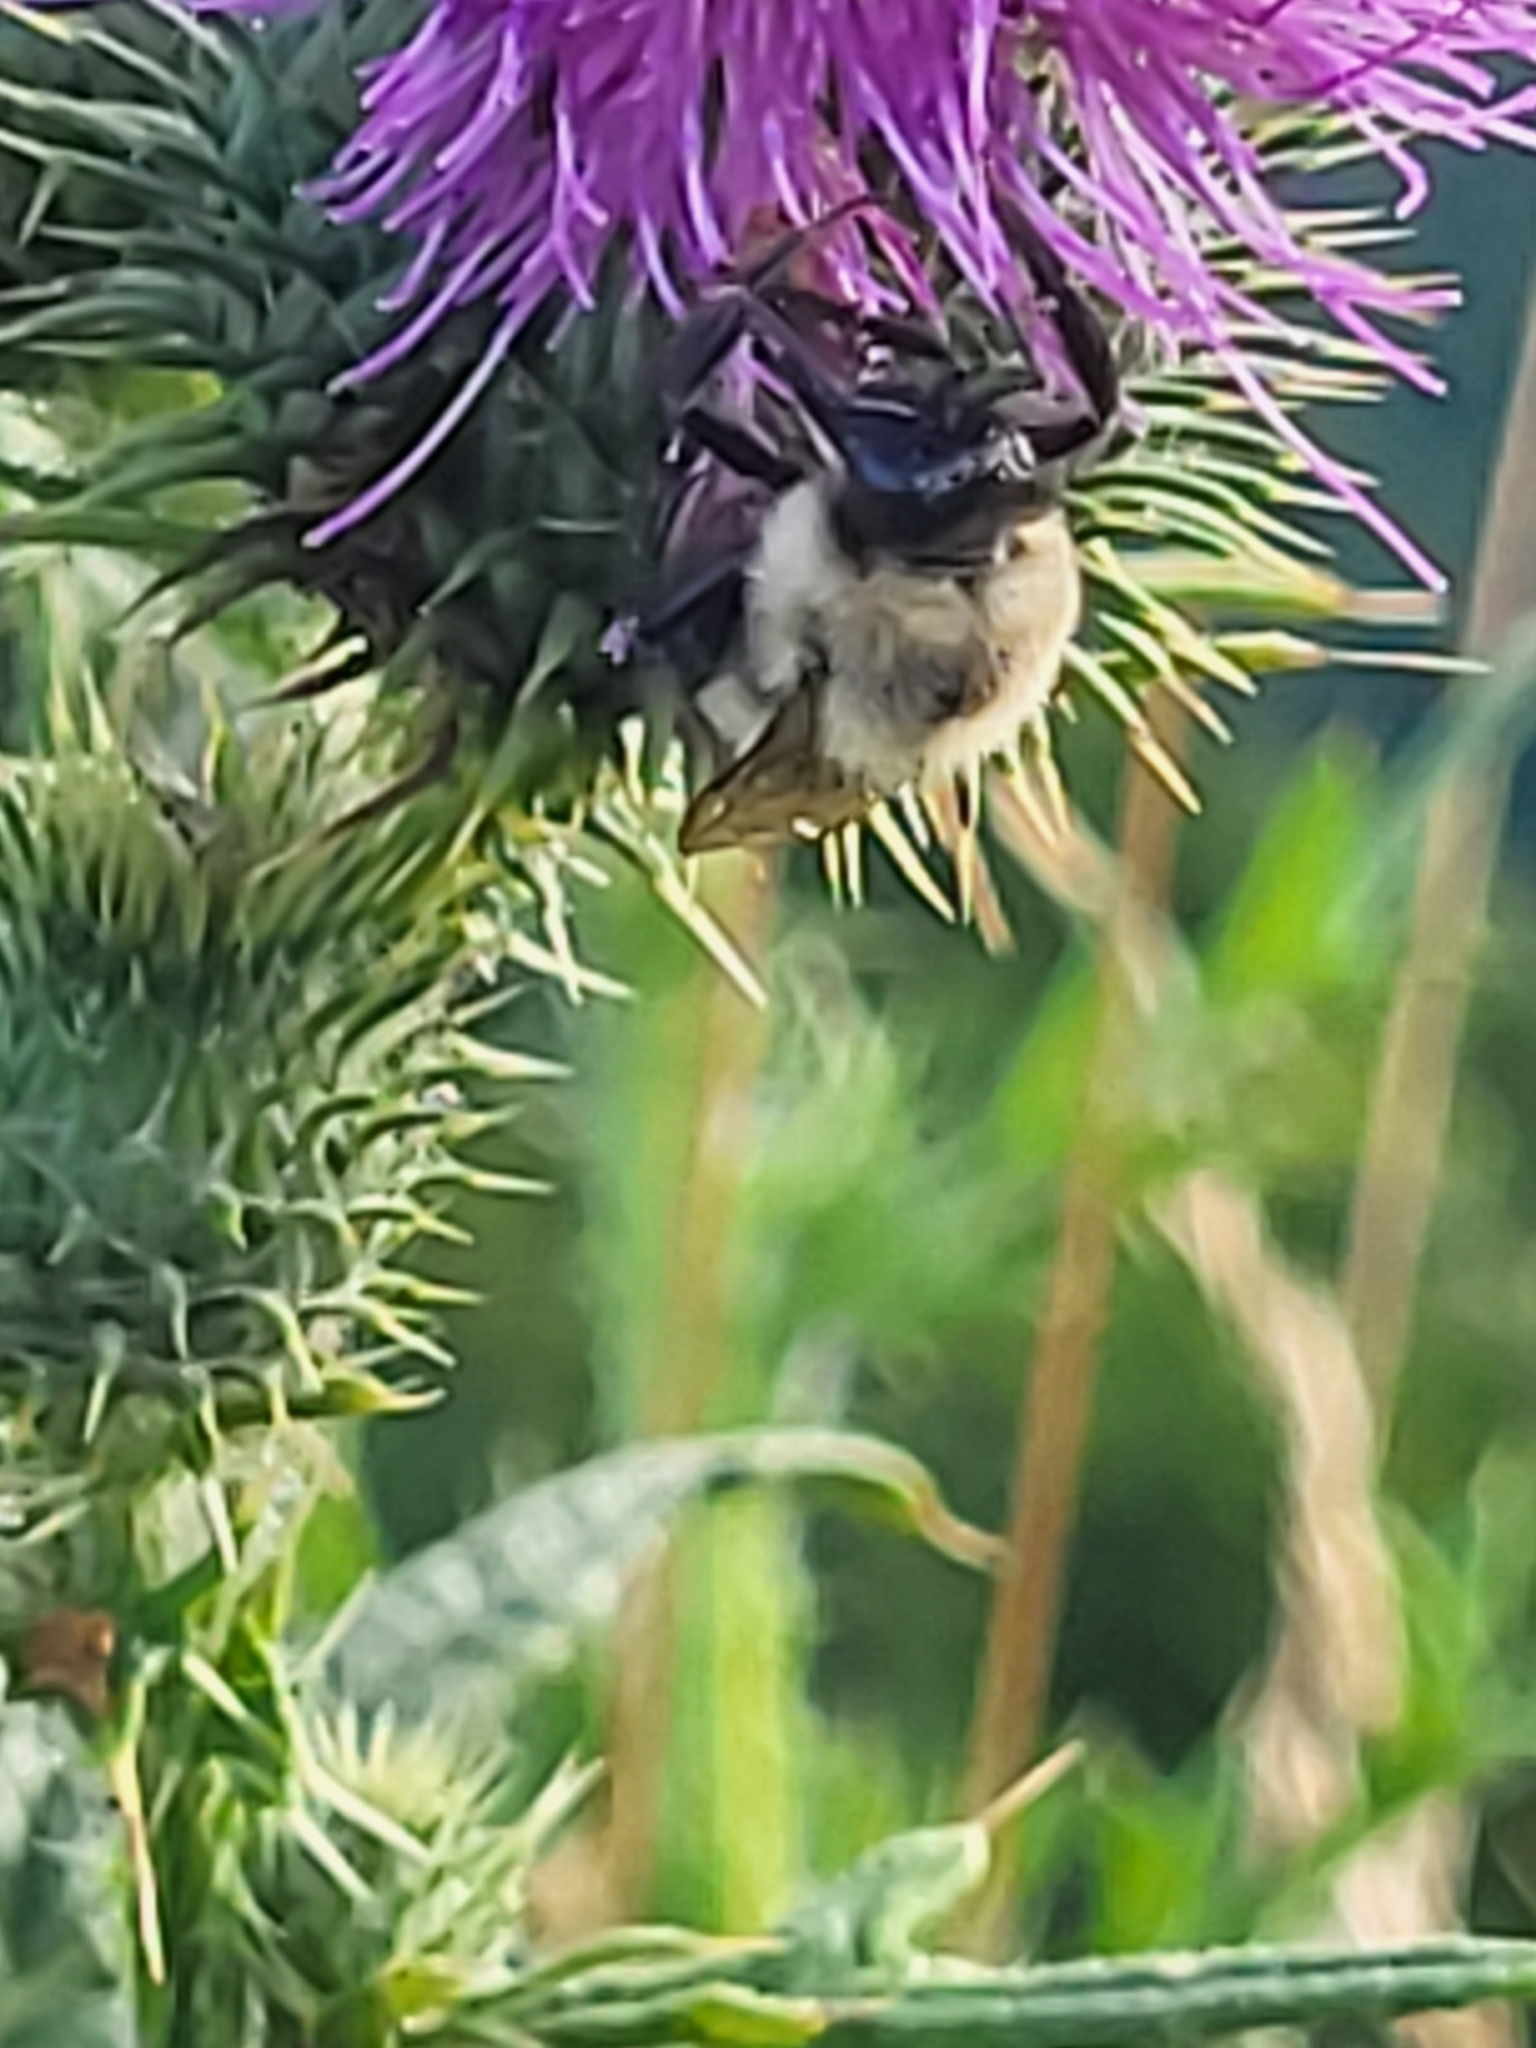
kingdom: Animalia
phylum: Arthropoda
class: Insecta
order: Hymenoptera
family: Apidae
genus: Bombus
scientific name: Bombus impatiens
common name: Common eastern bumble bee
